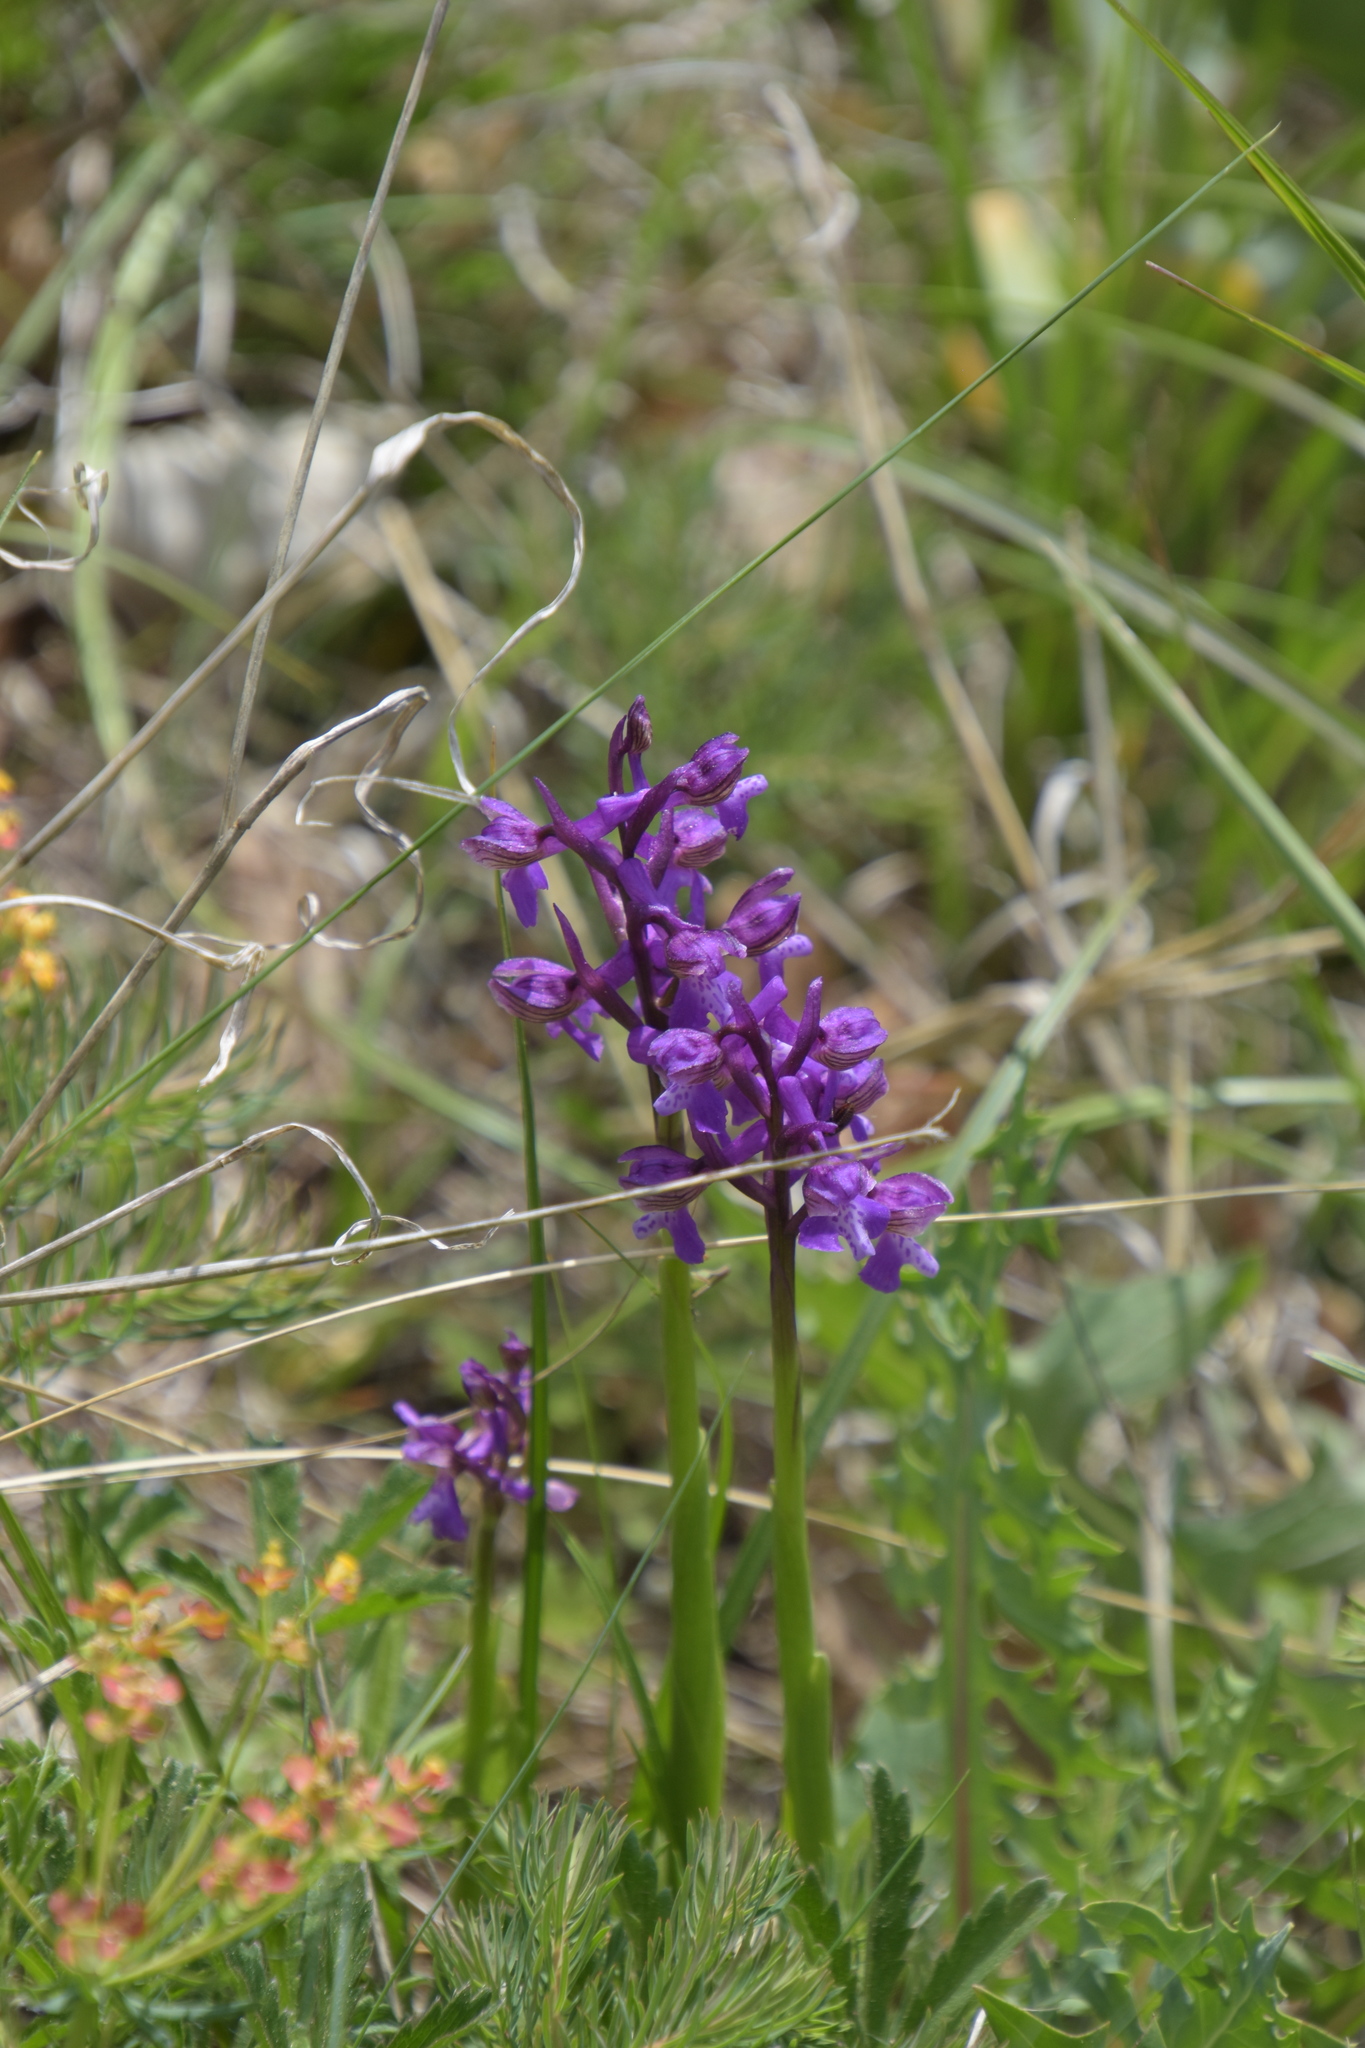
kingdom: Plantae
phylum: Tracheophyta
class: Liliopsida
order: Asparagales
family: Orchidaceae
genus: Anacamptis
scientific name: Anacamptis morio
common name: Green-winged orchid
